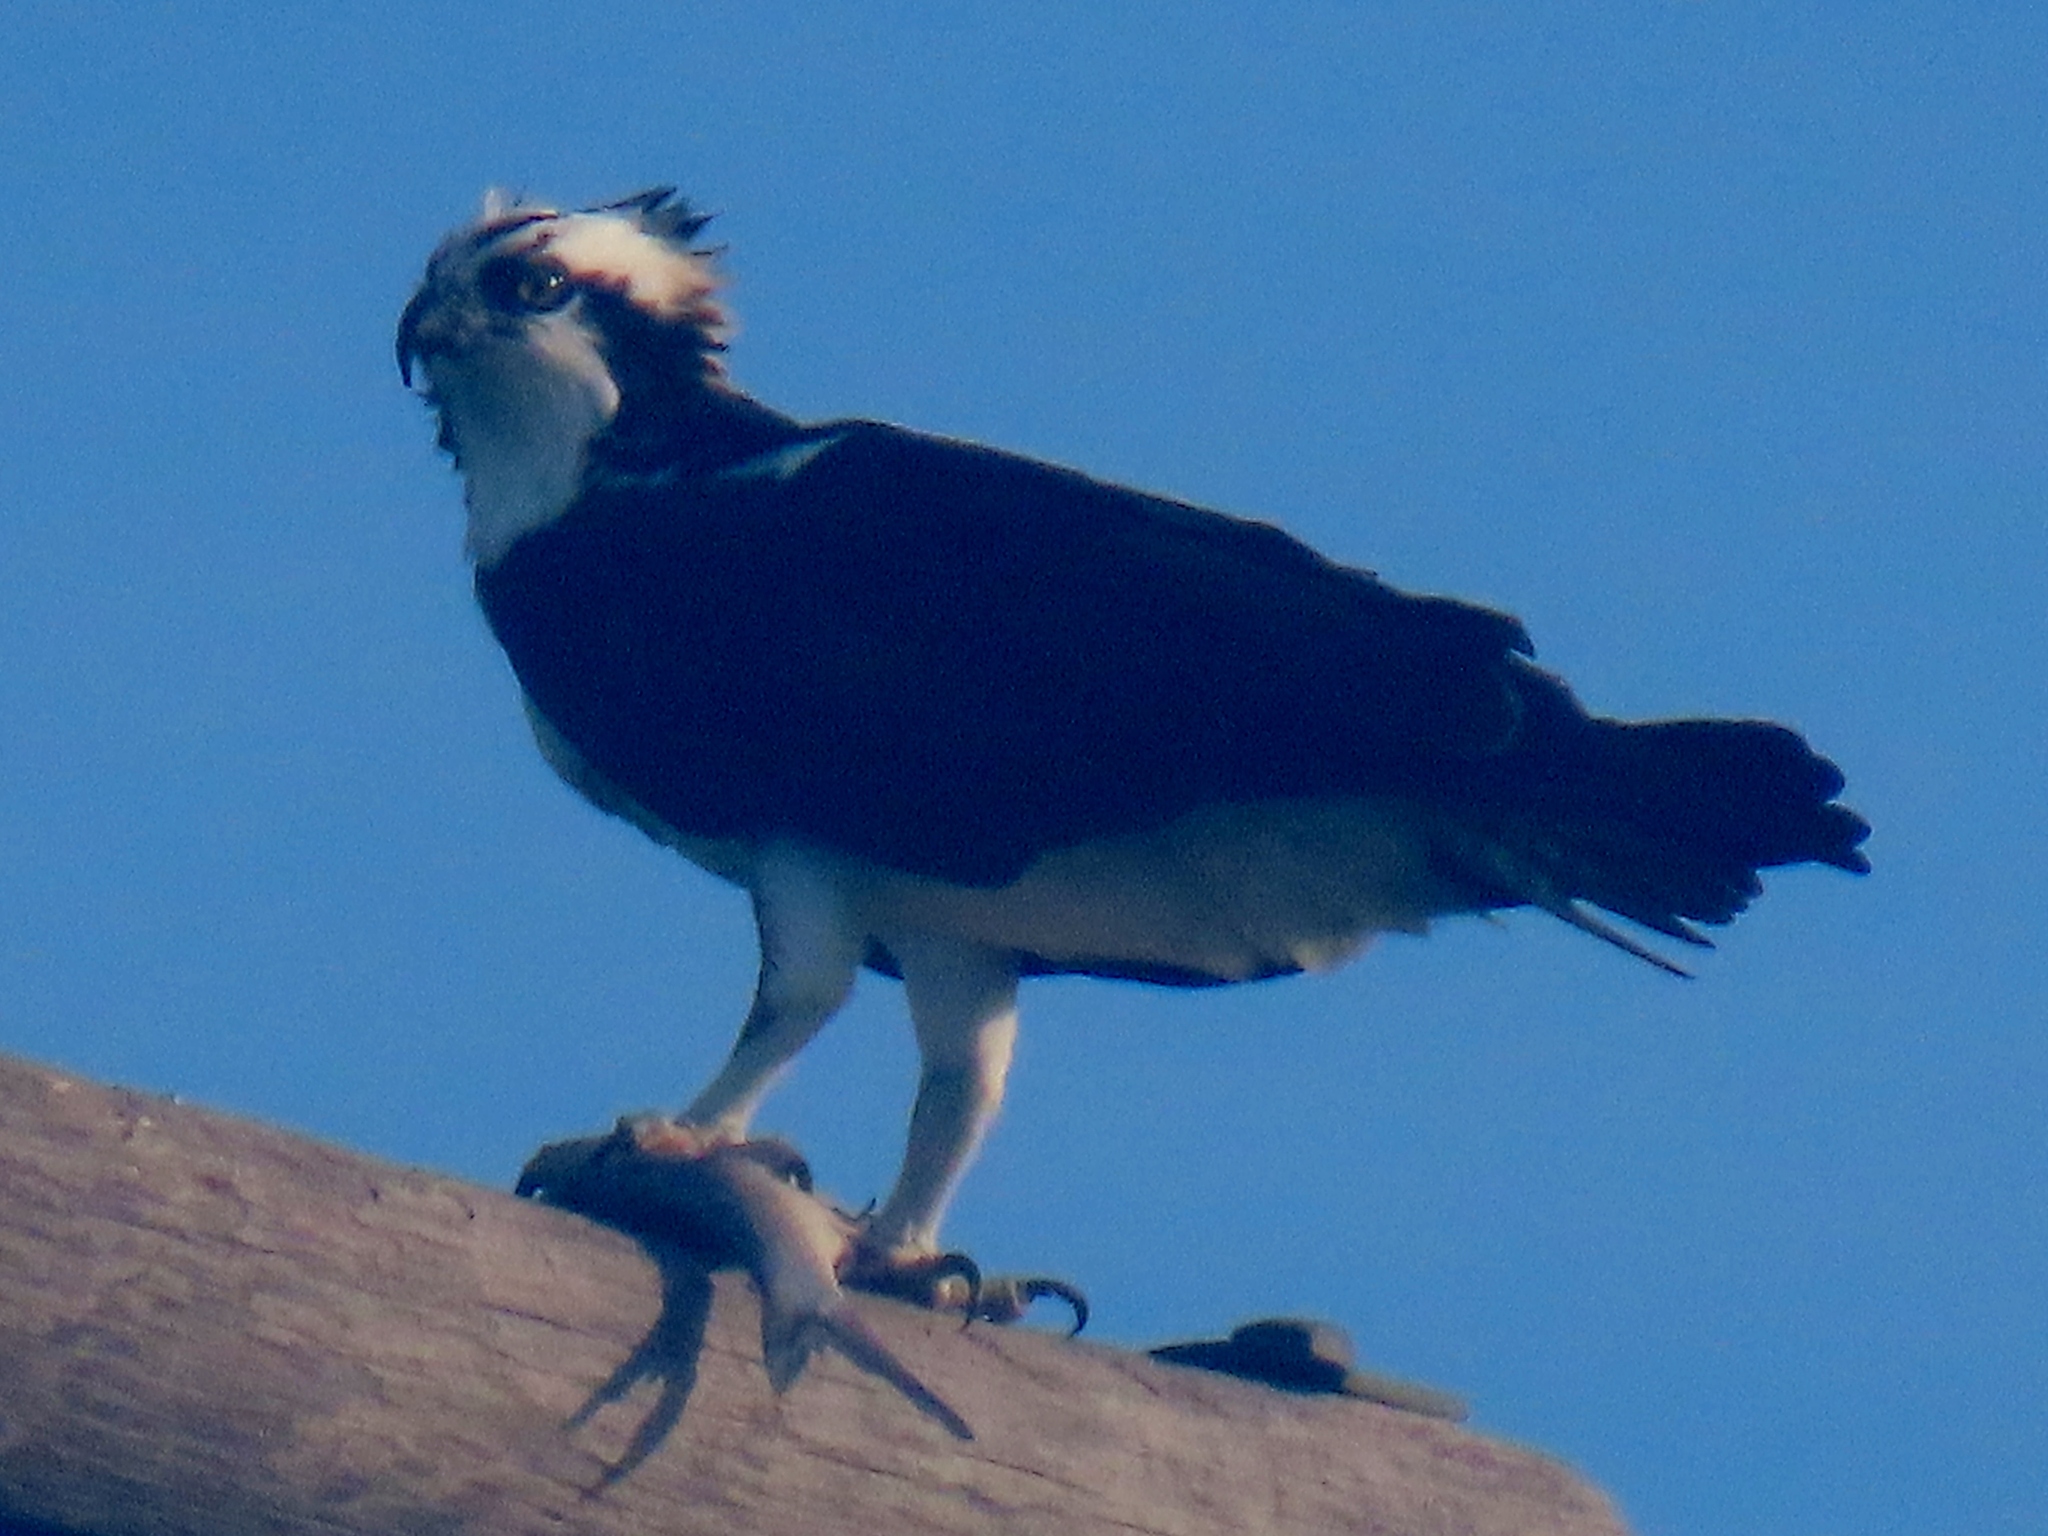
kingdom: Animalia
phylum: Chordata
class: Aves
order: Accipitriformes
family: Pandionidae
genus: Pandion
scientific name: Pandion haliaetus
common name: Osprey
